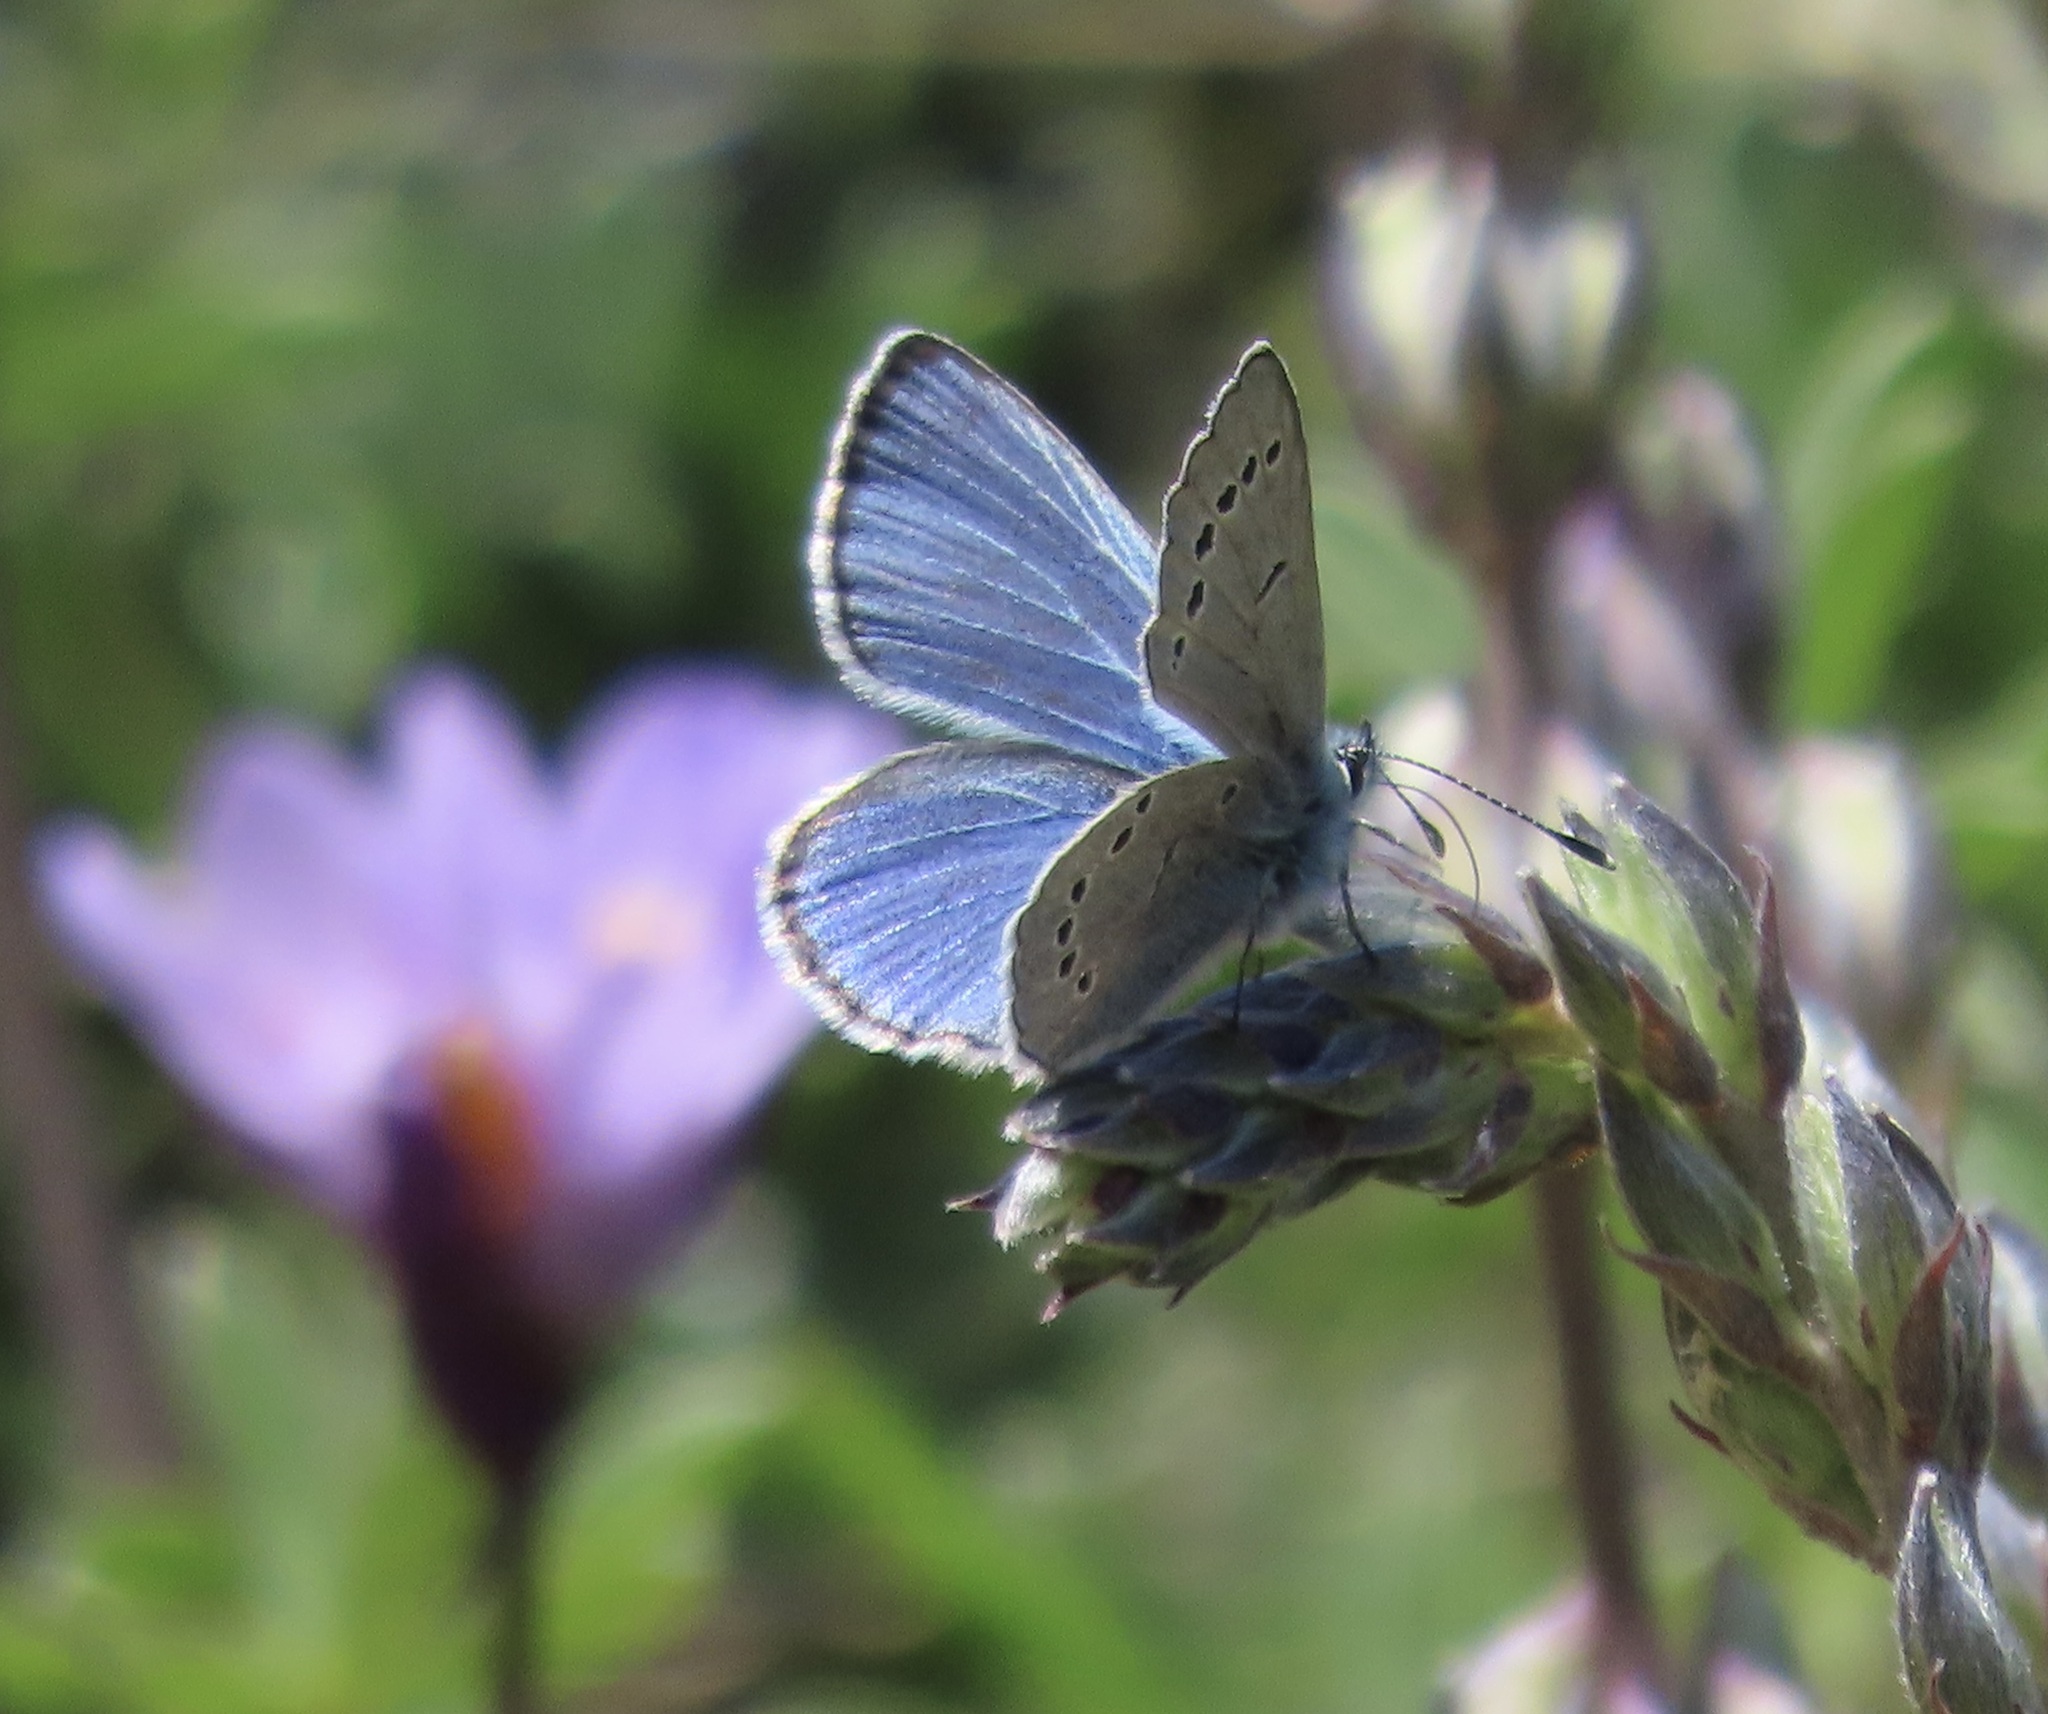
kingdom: Animalia
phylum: Arthropoda
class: Insecta
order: Lepidoptera
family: Lycaenidae
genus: Glaucopsyche
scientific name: Glaucopsyche lygdamus
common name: Silvery blue
